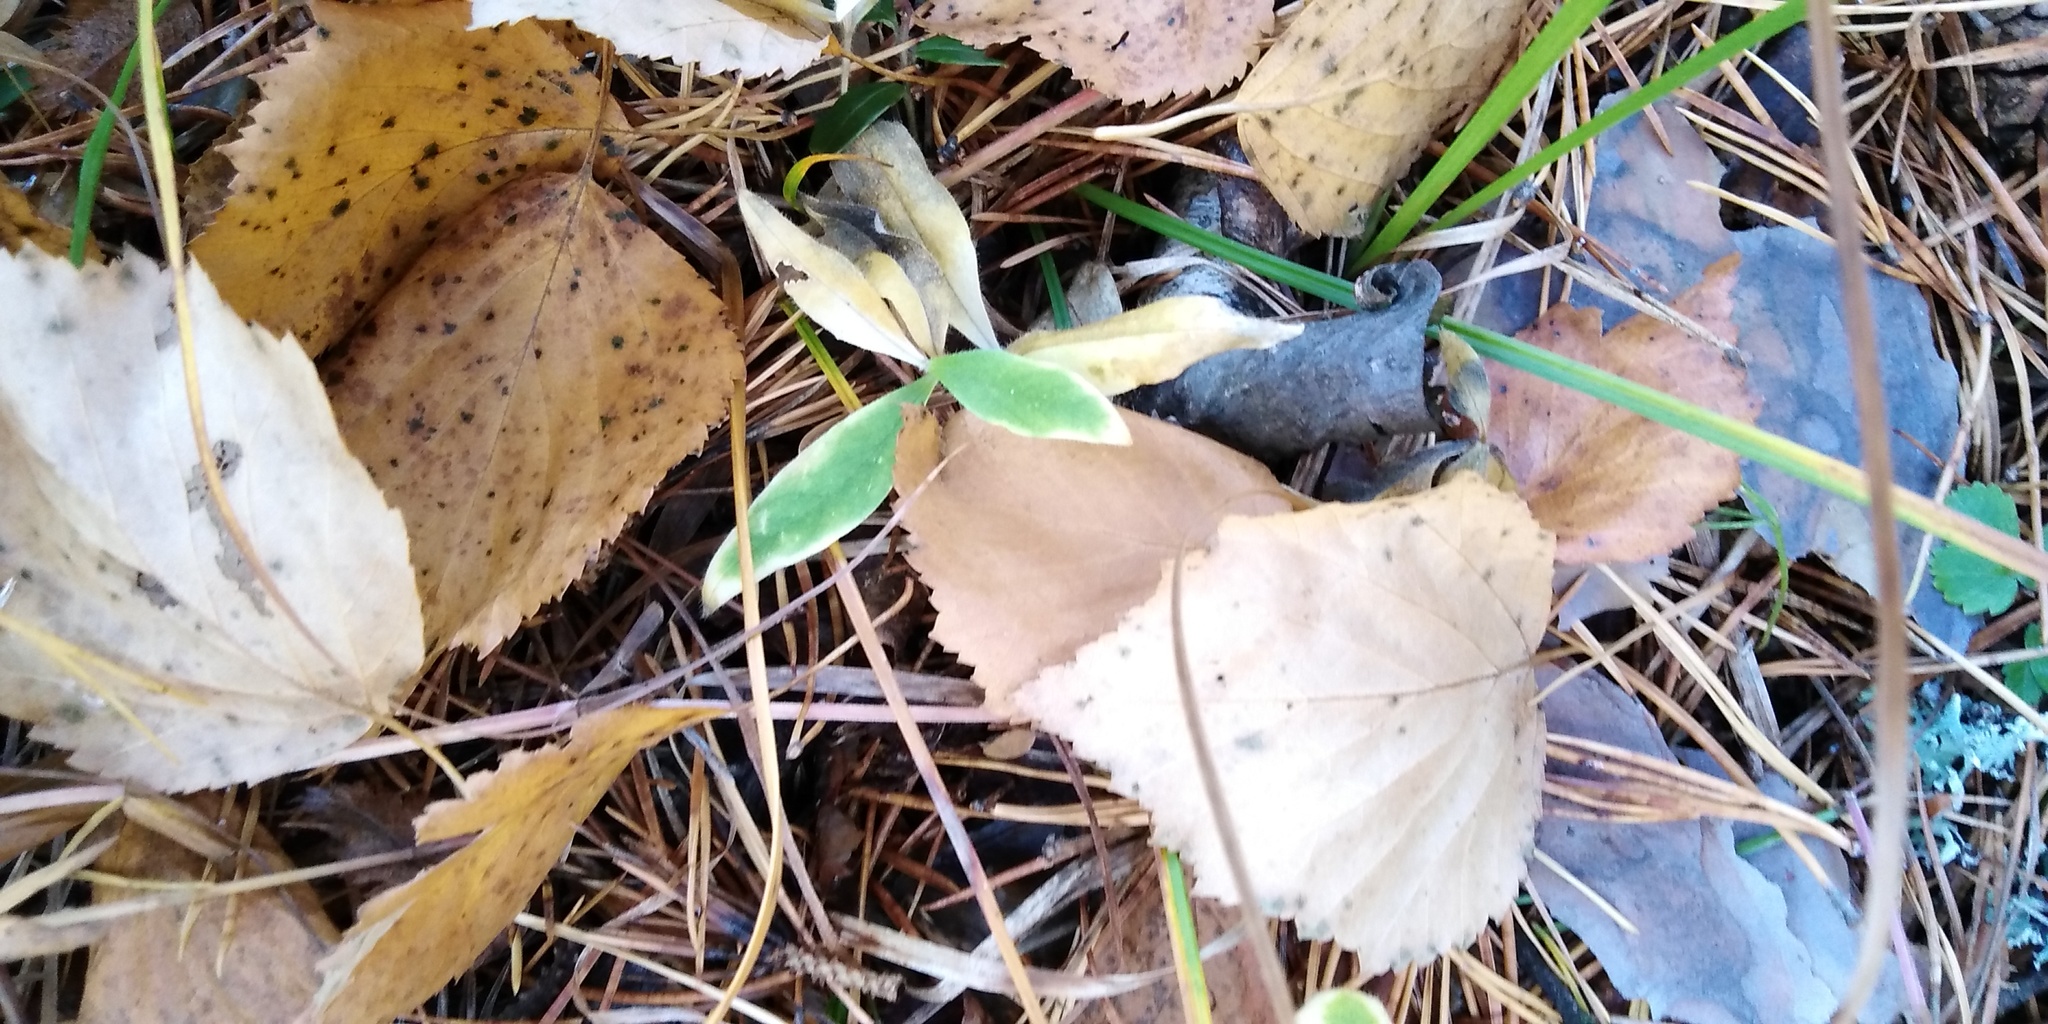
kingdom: Plantae
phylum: Tracheophyta
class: Magnoliopsida
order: Caryophyllales
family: Caryophyllaceae
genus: Cerastium
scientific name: Cerastium pauciflorum
